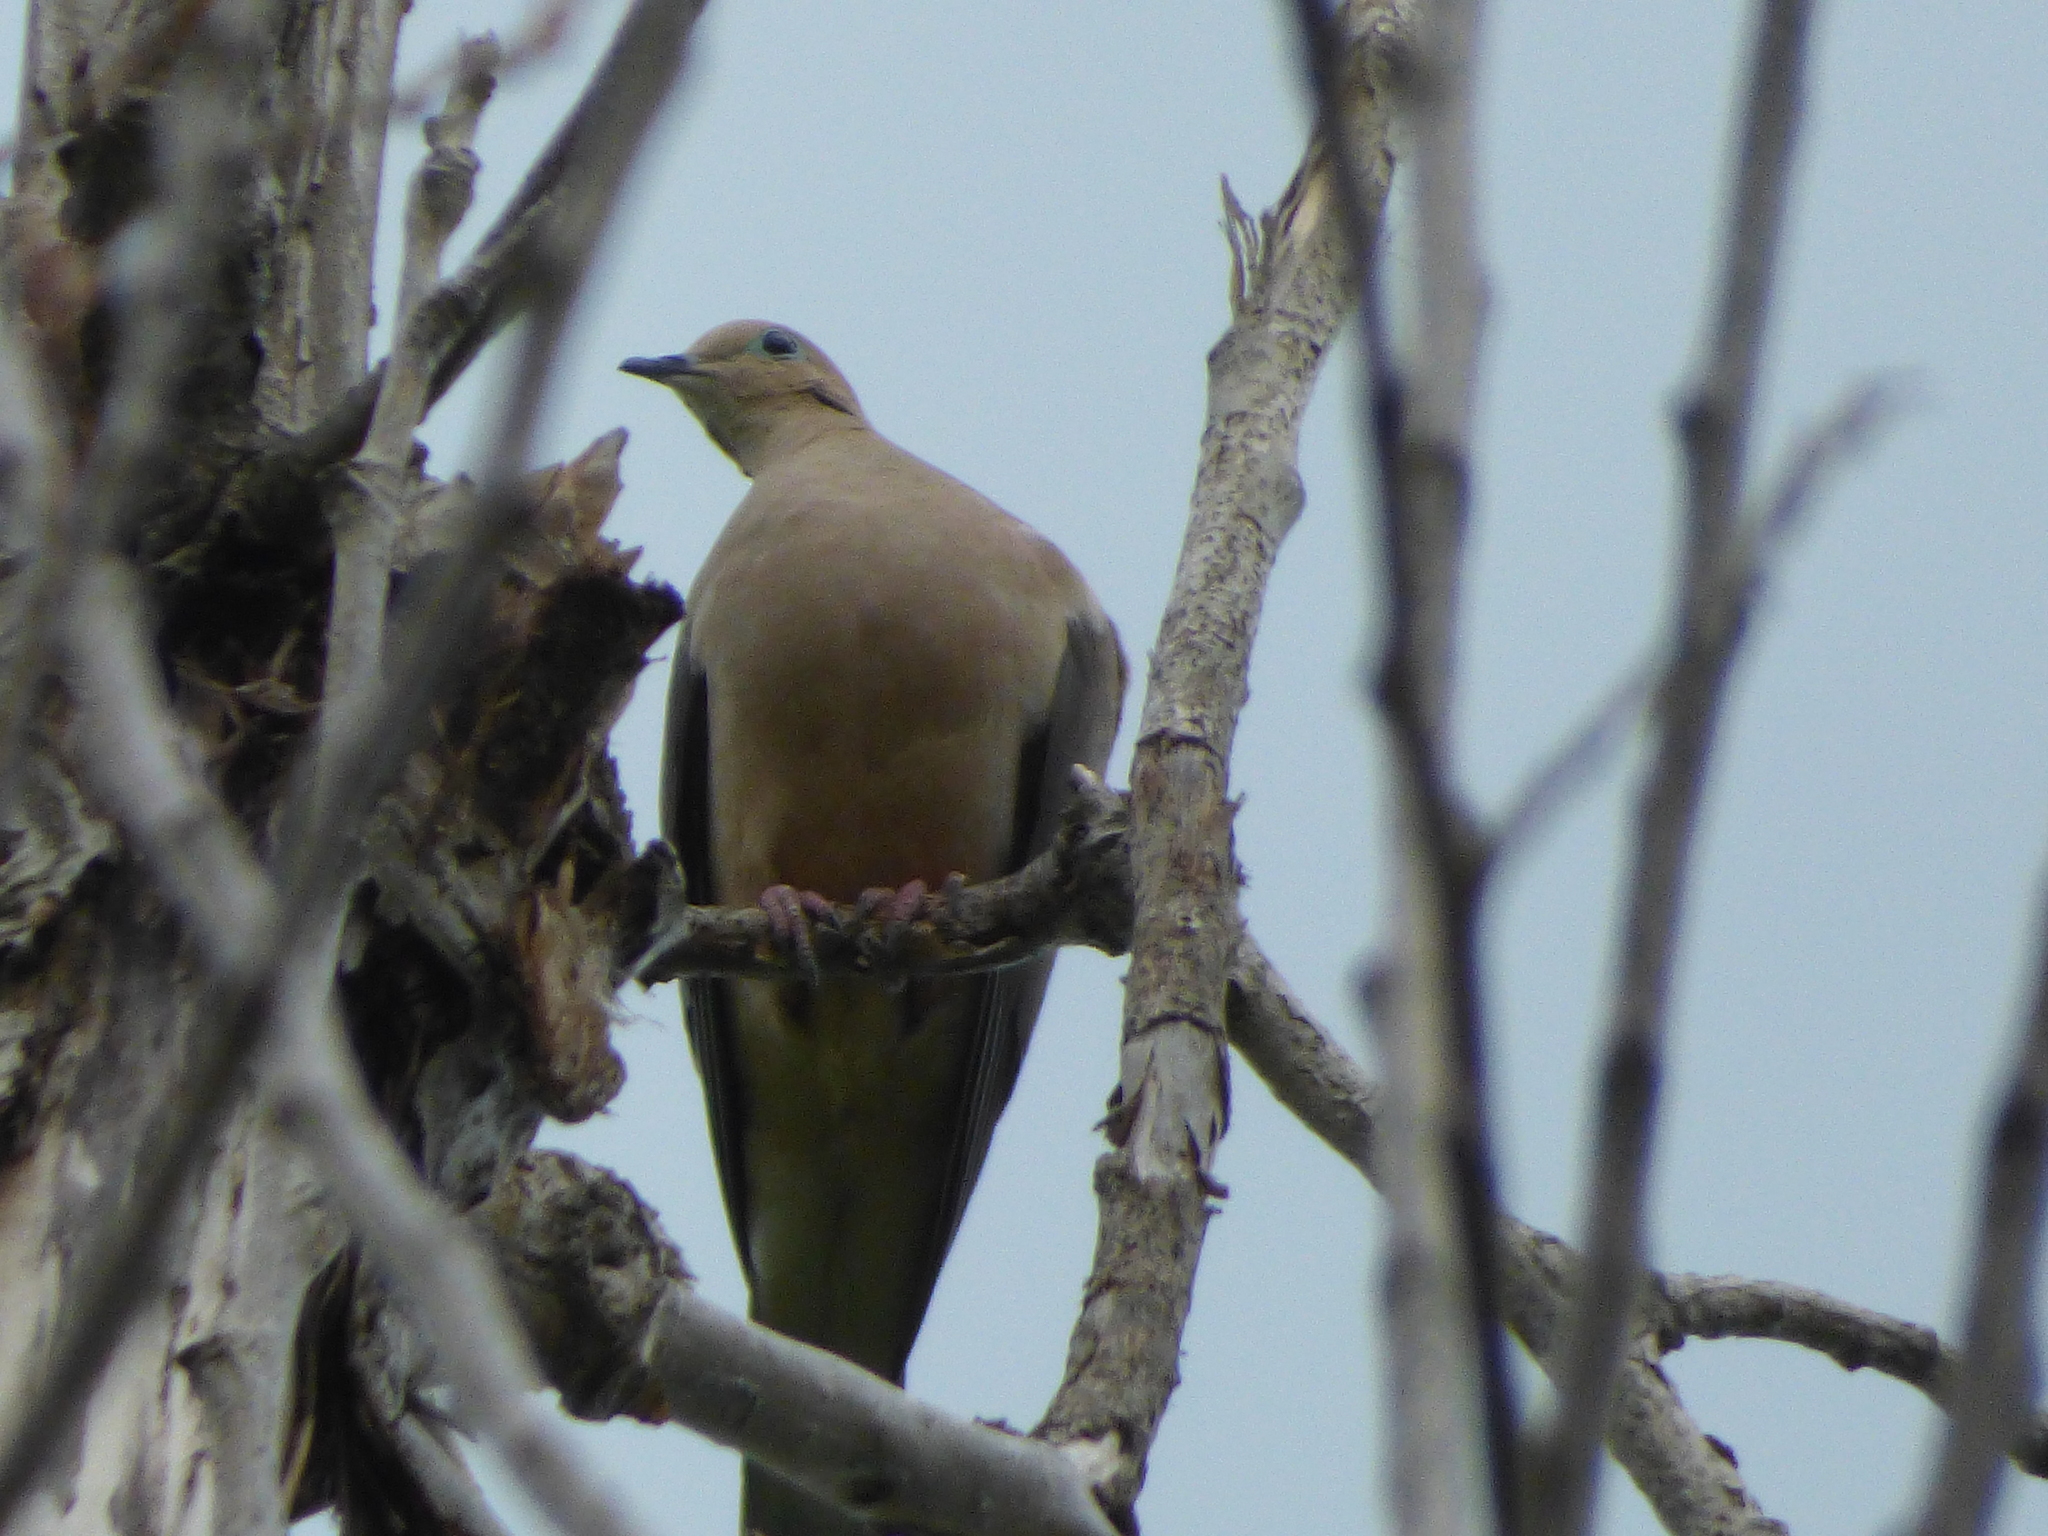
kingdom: Animalia
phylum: Chordata
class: Aves
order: Columbiformes
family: Columbidae
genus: Zenaida
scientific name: Zenaida macroura
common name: Mourning dove
